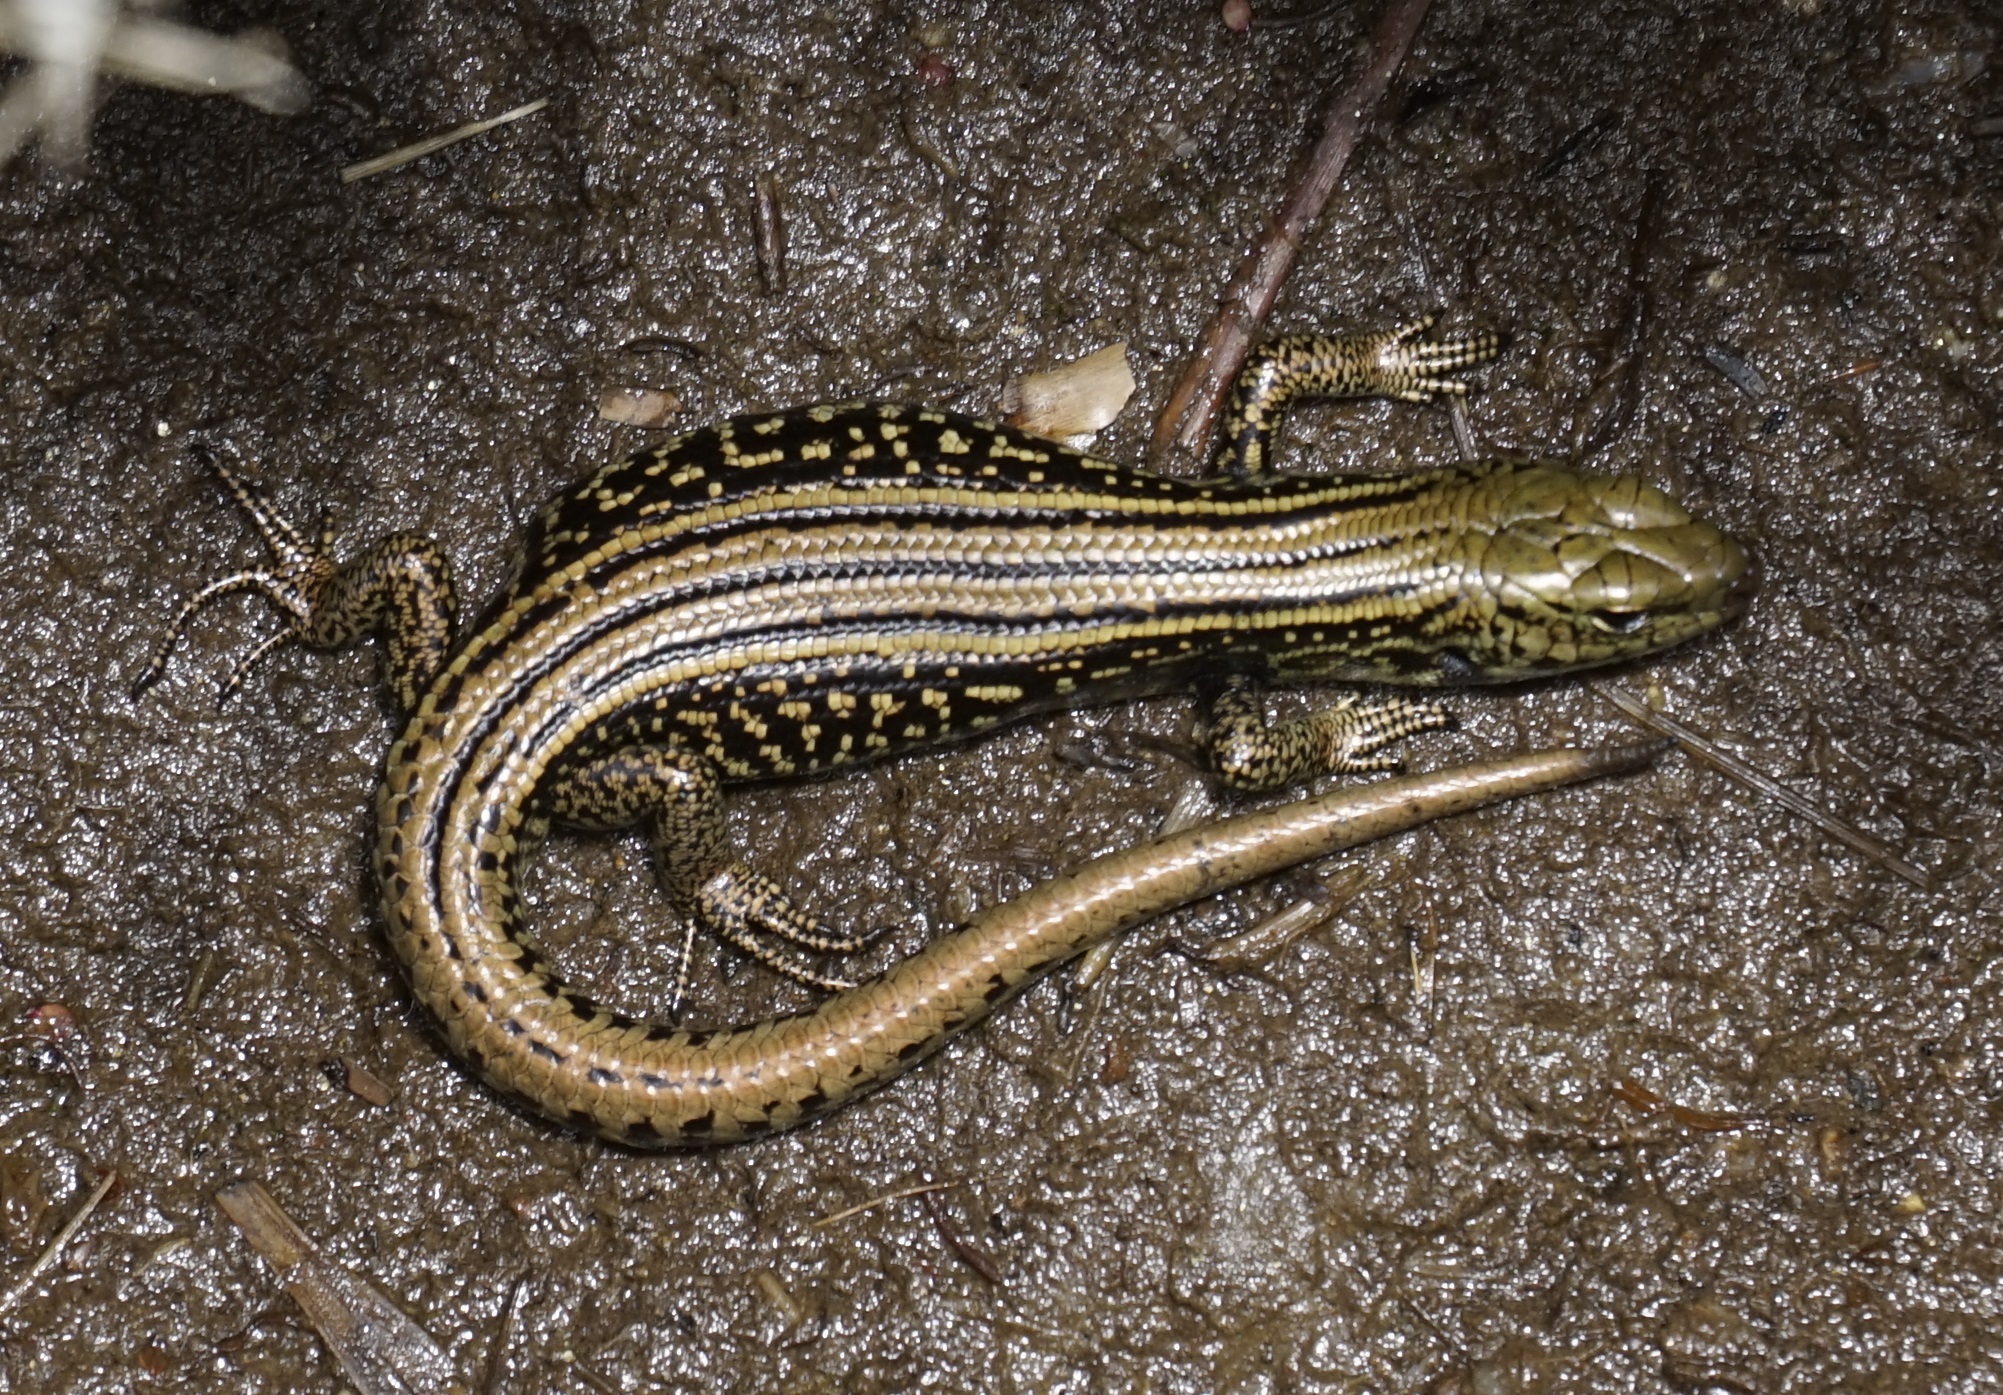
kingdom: Animalia
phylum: Chordata
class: Squamata
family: Scincidae
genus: Eulamprus
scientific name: Eulamprus kosciuskoi
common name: Alpine meadow-skink
